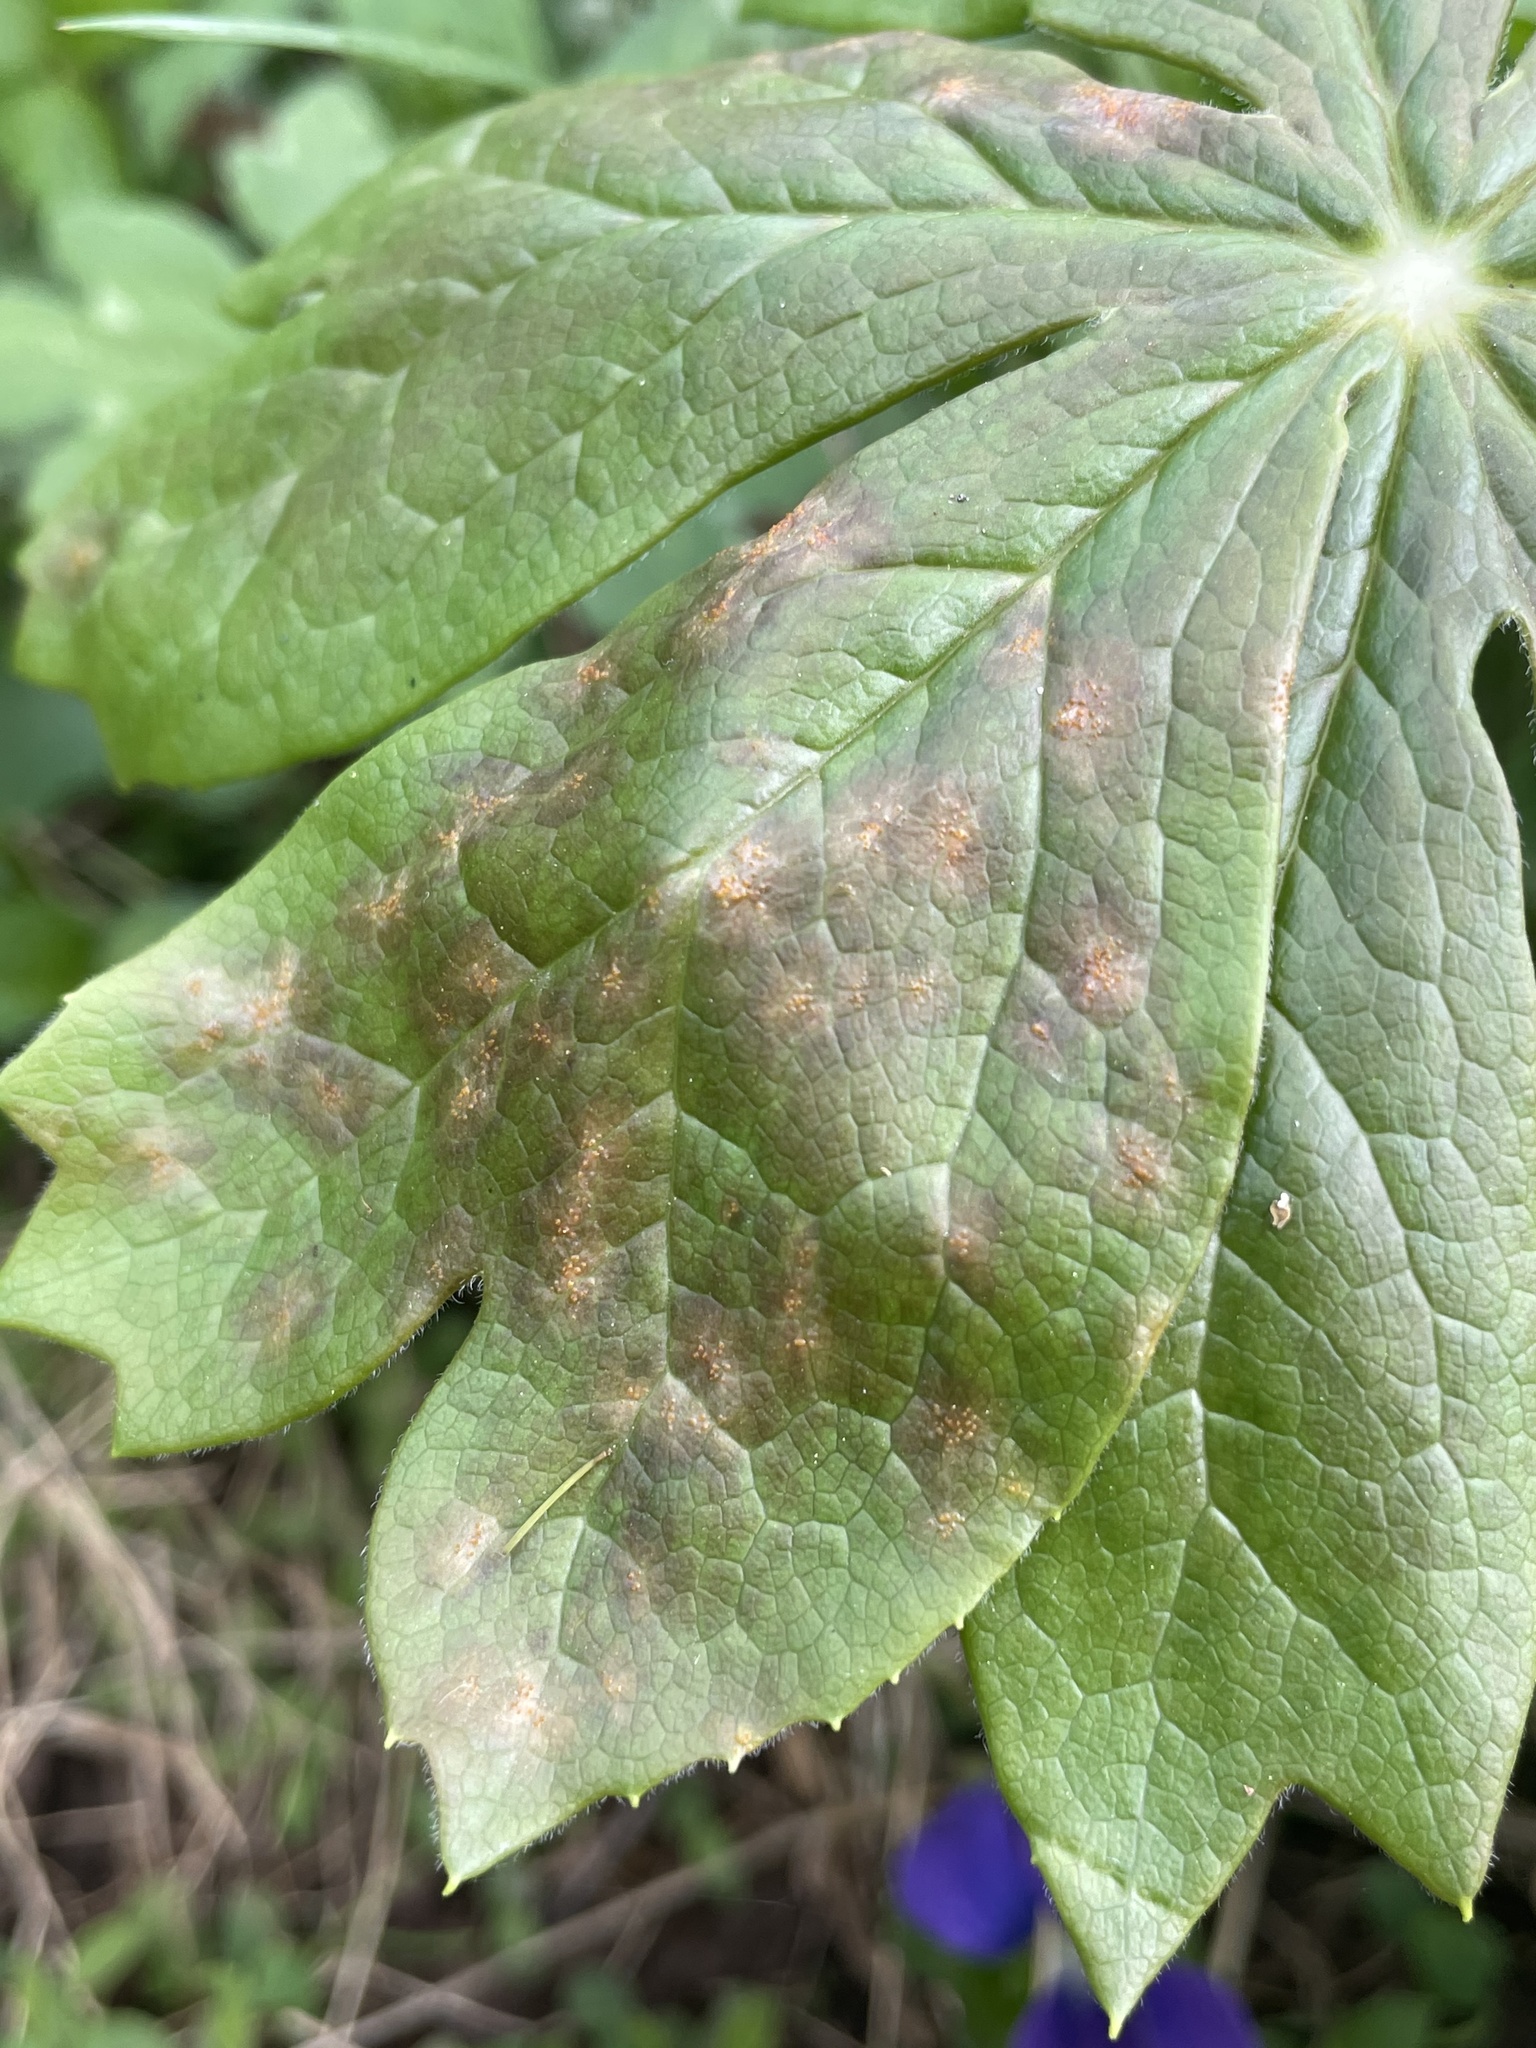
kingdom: Fungi
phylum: Basidiomycota
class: Pucciniomycetes
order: Pucciniales
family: Pucciniaceae
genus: Puccinia
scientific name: Puccinia podophylli
